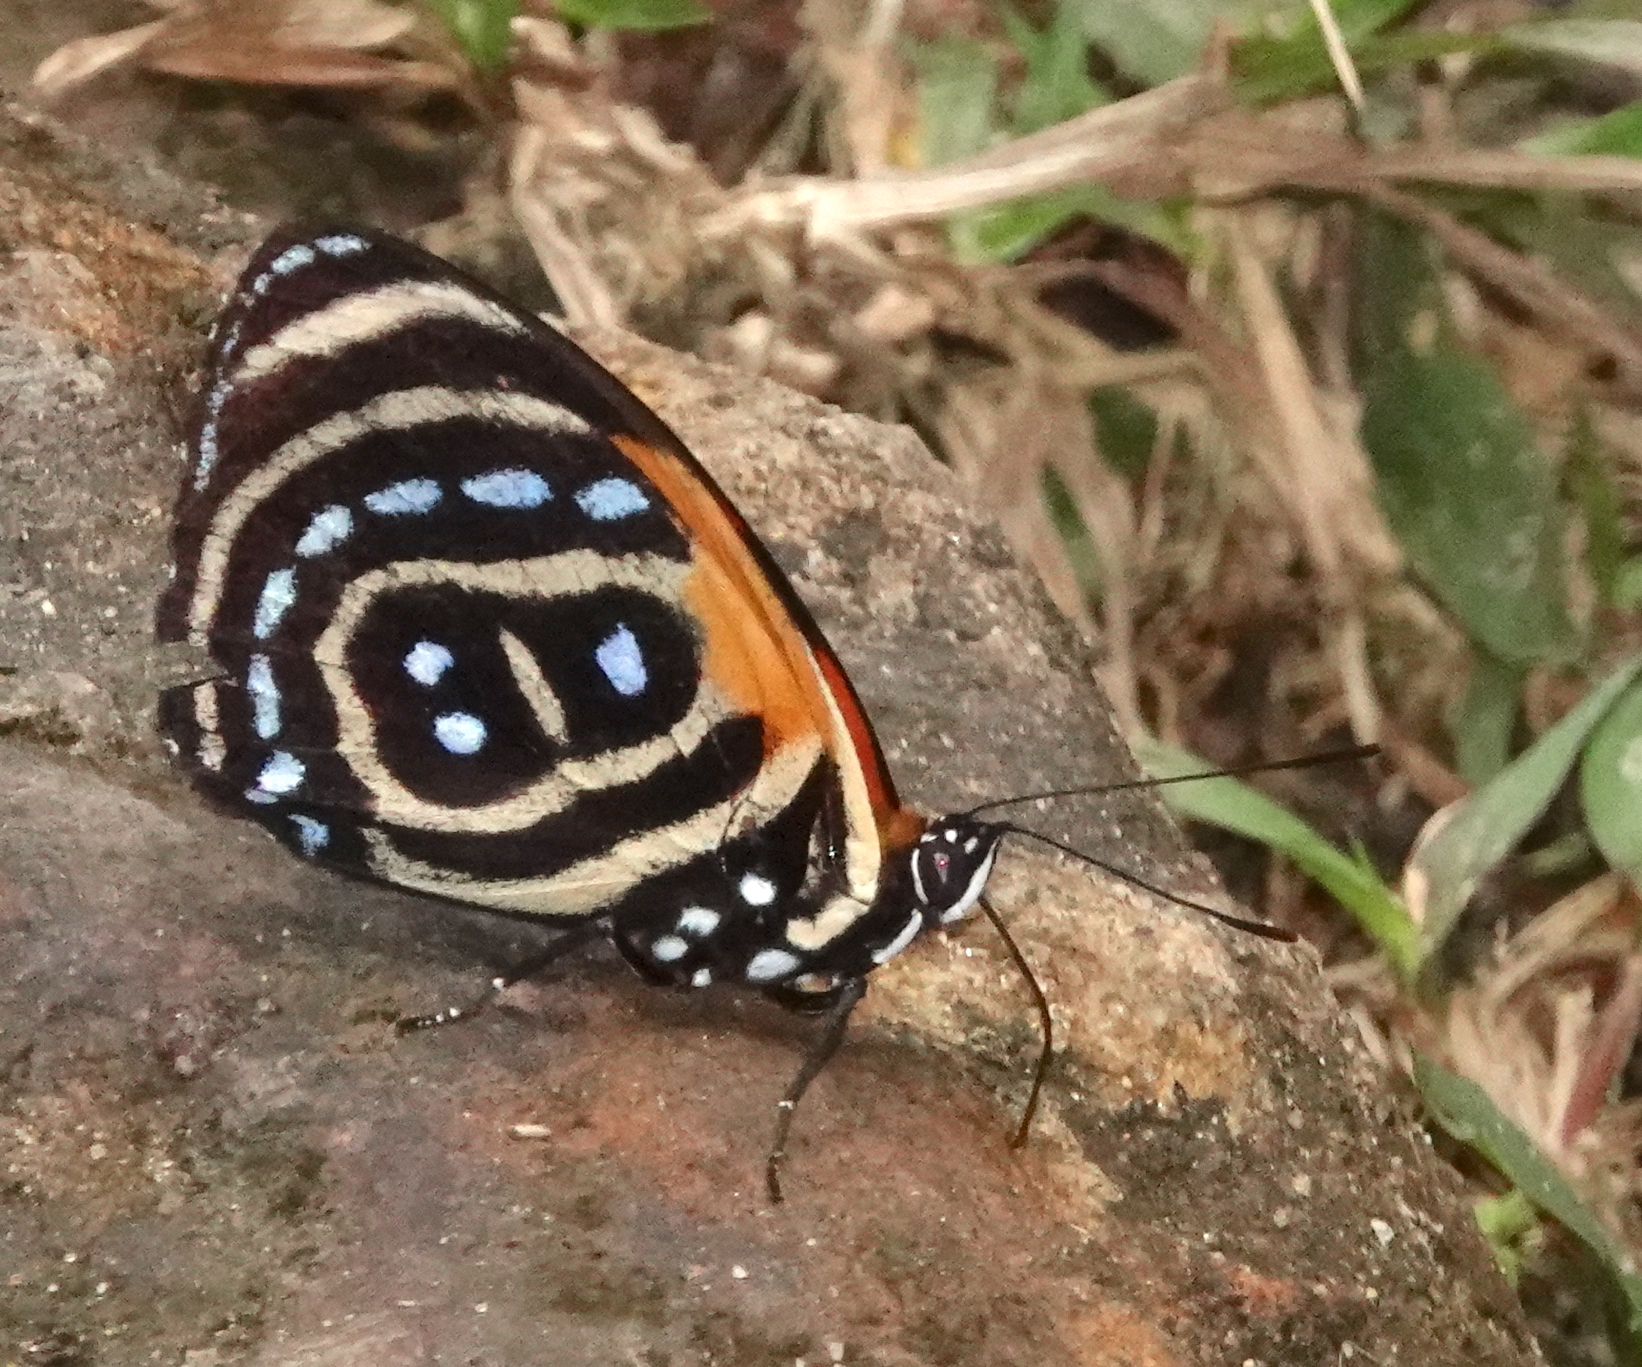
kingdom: Animalia
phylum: Arthropoda
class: Insecta
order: Lepidoptera
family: Nymphalidae
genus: Catagramma
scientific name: Catagramma cynosura
